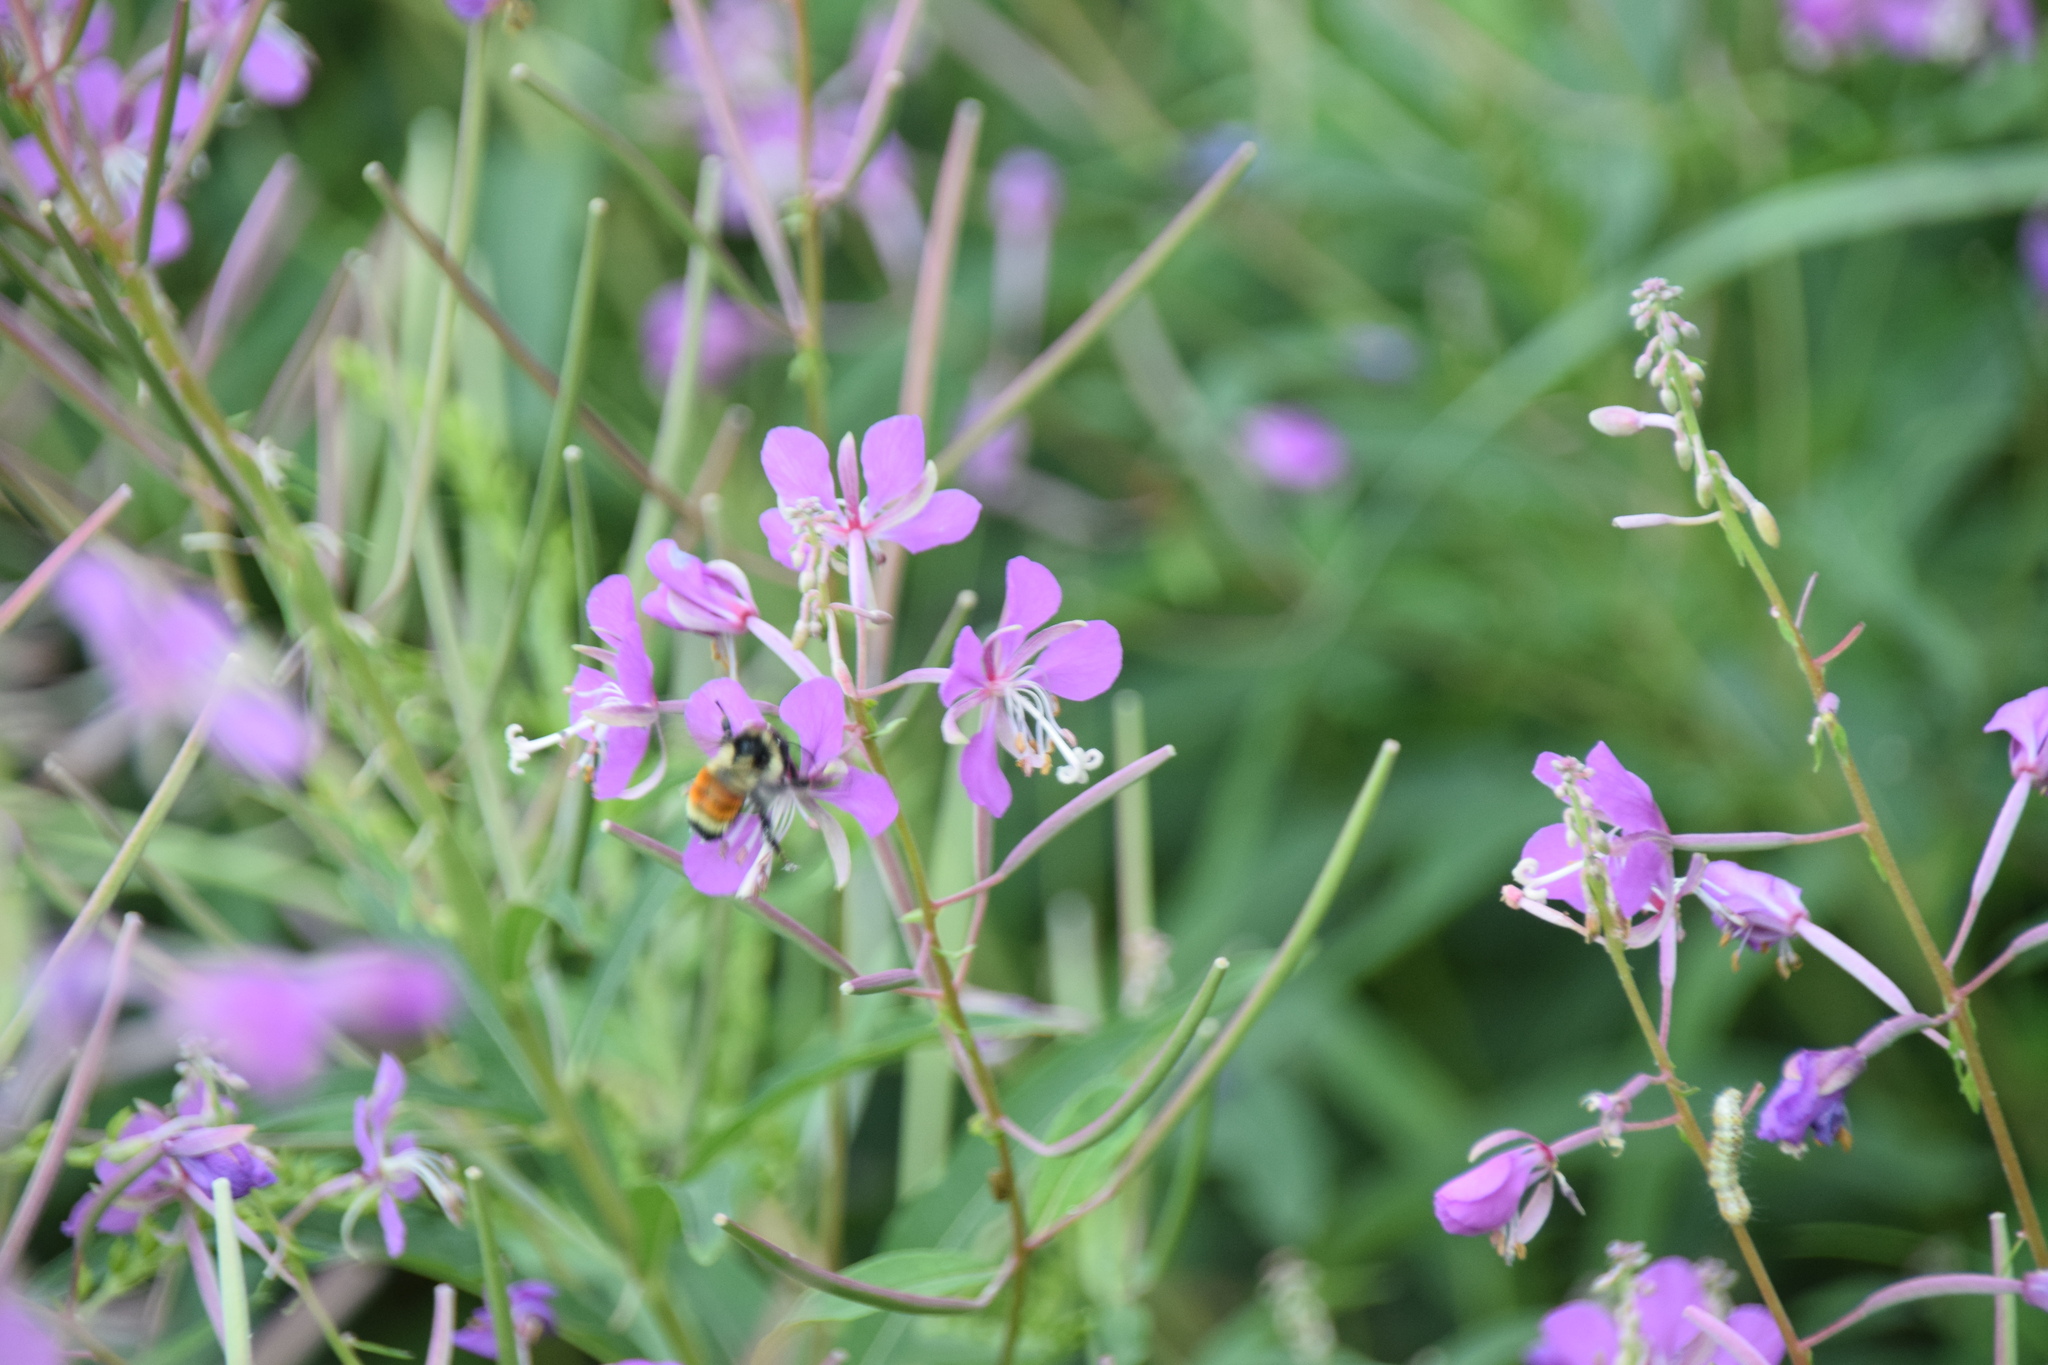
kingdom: Animalia
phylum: Arthropoda
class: Insecta
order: Hymenoptera
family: Apidae
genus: Bombus
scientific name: Bombus ternarius
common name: Tri-colored bumble bee
